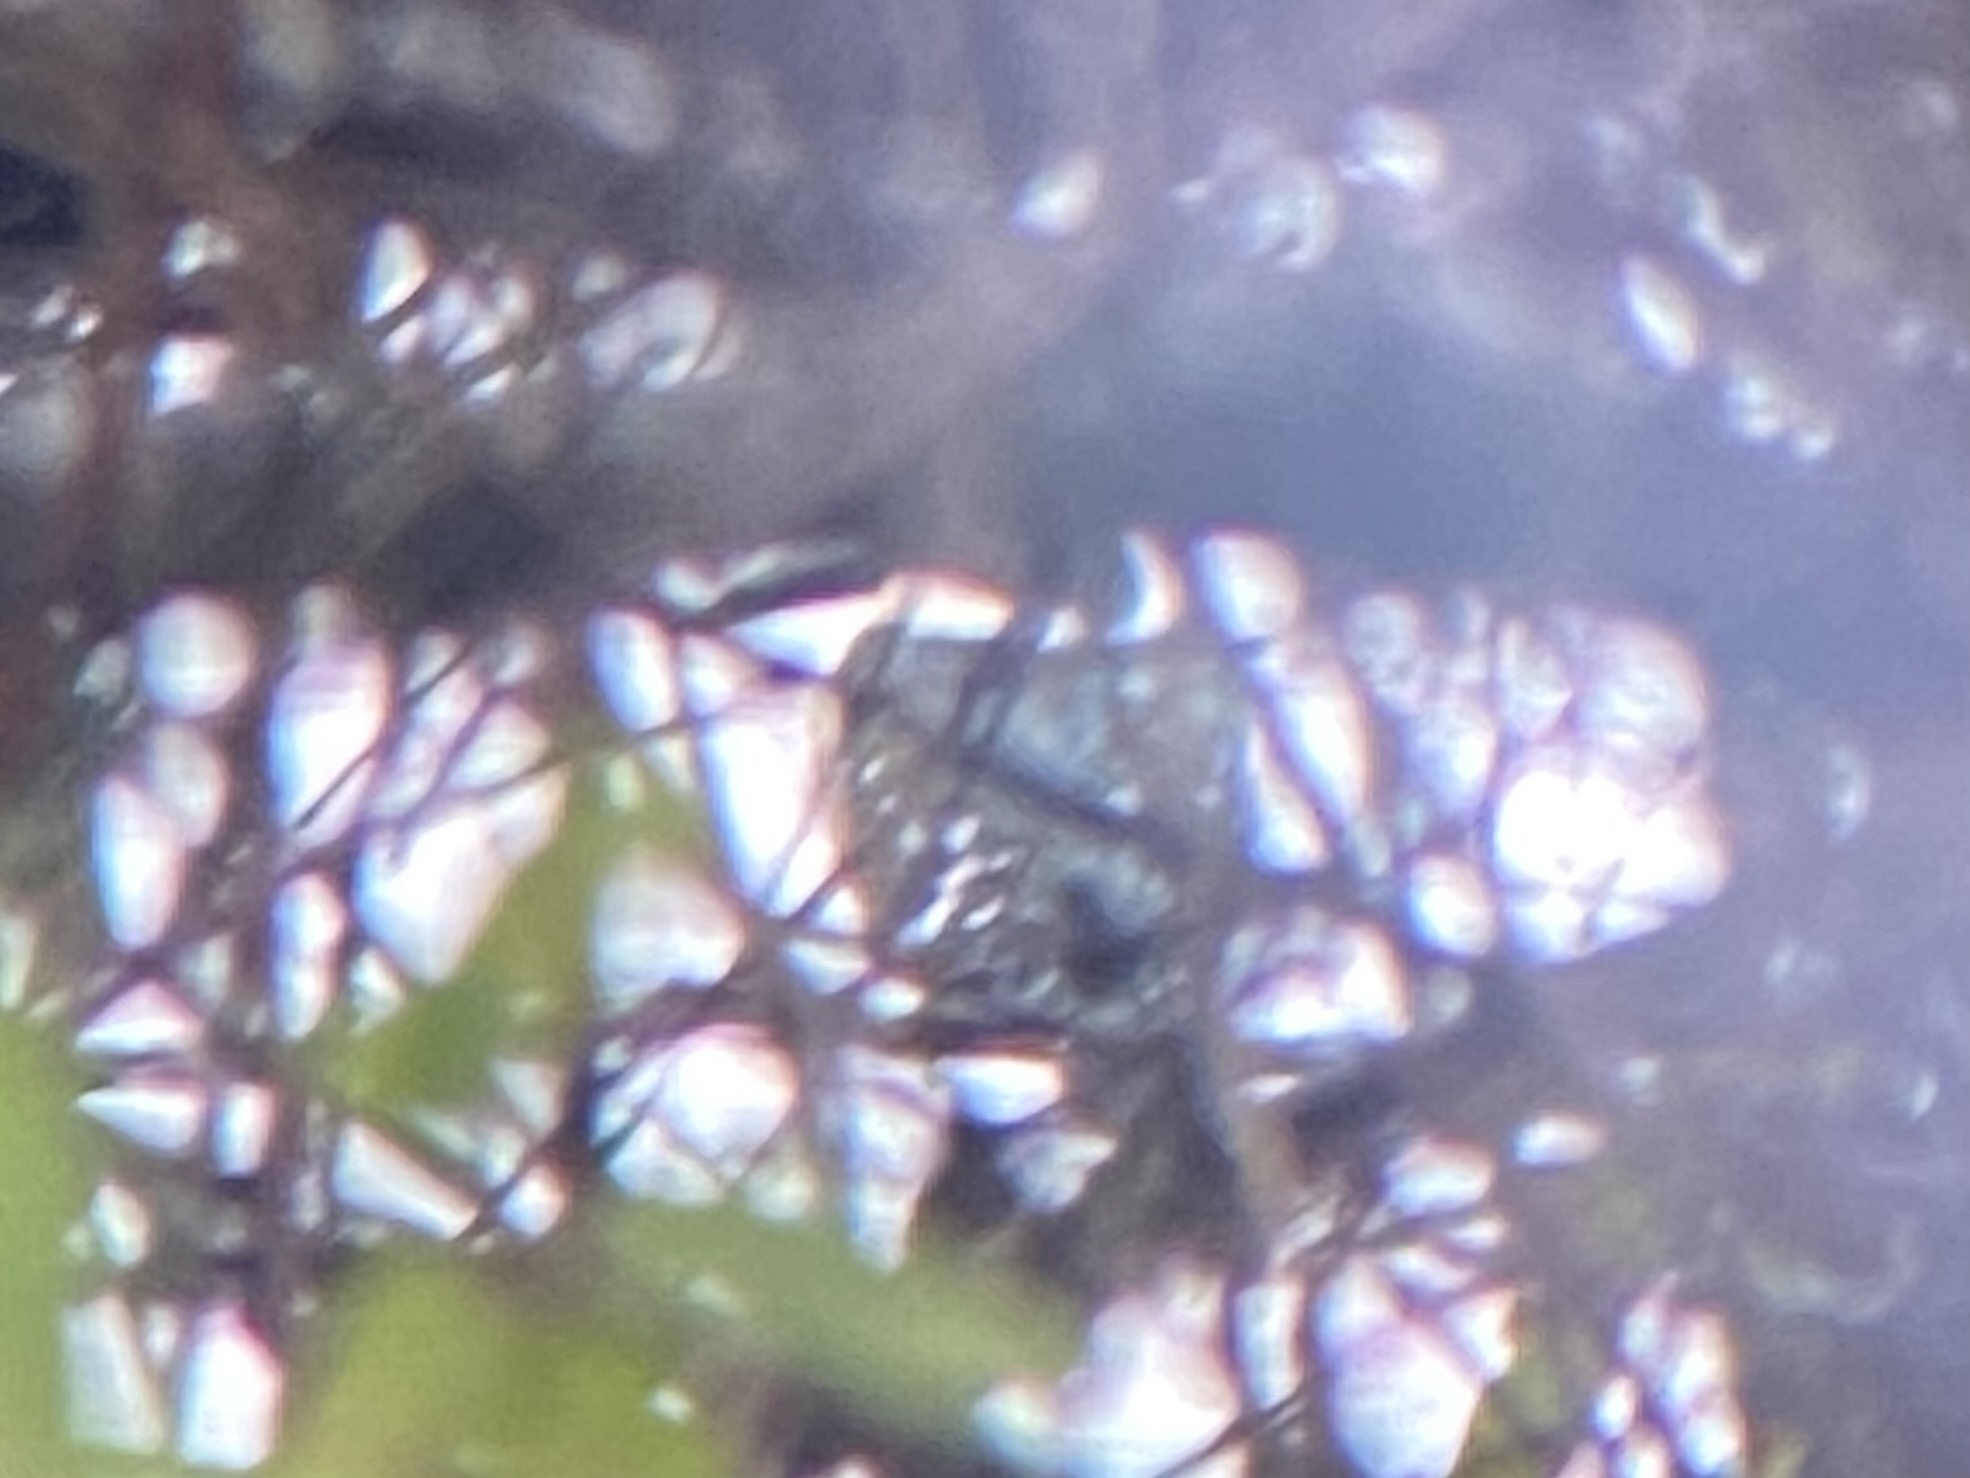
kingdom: Animalia
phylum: Chordata
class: Aves
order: Coraciiformes
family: Alcedinidae
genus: Chloroceryle
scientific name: Chloroceryle americana
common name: Green kingfisher
